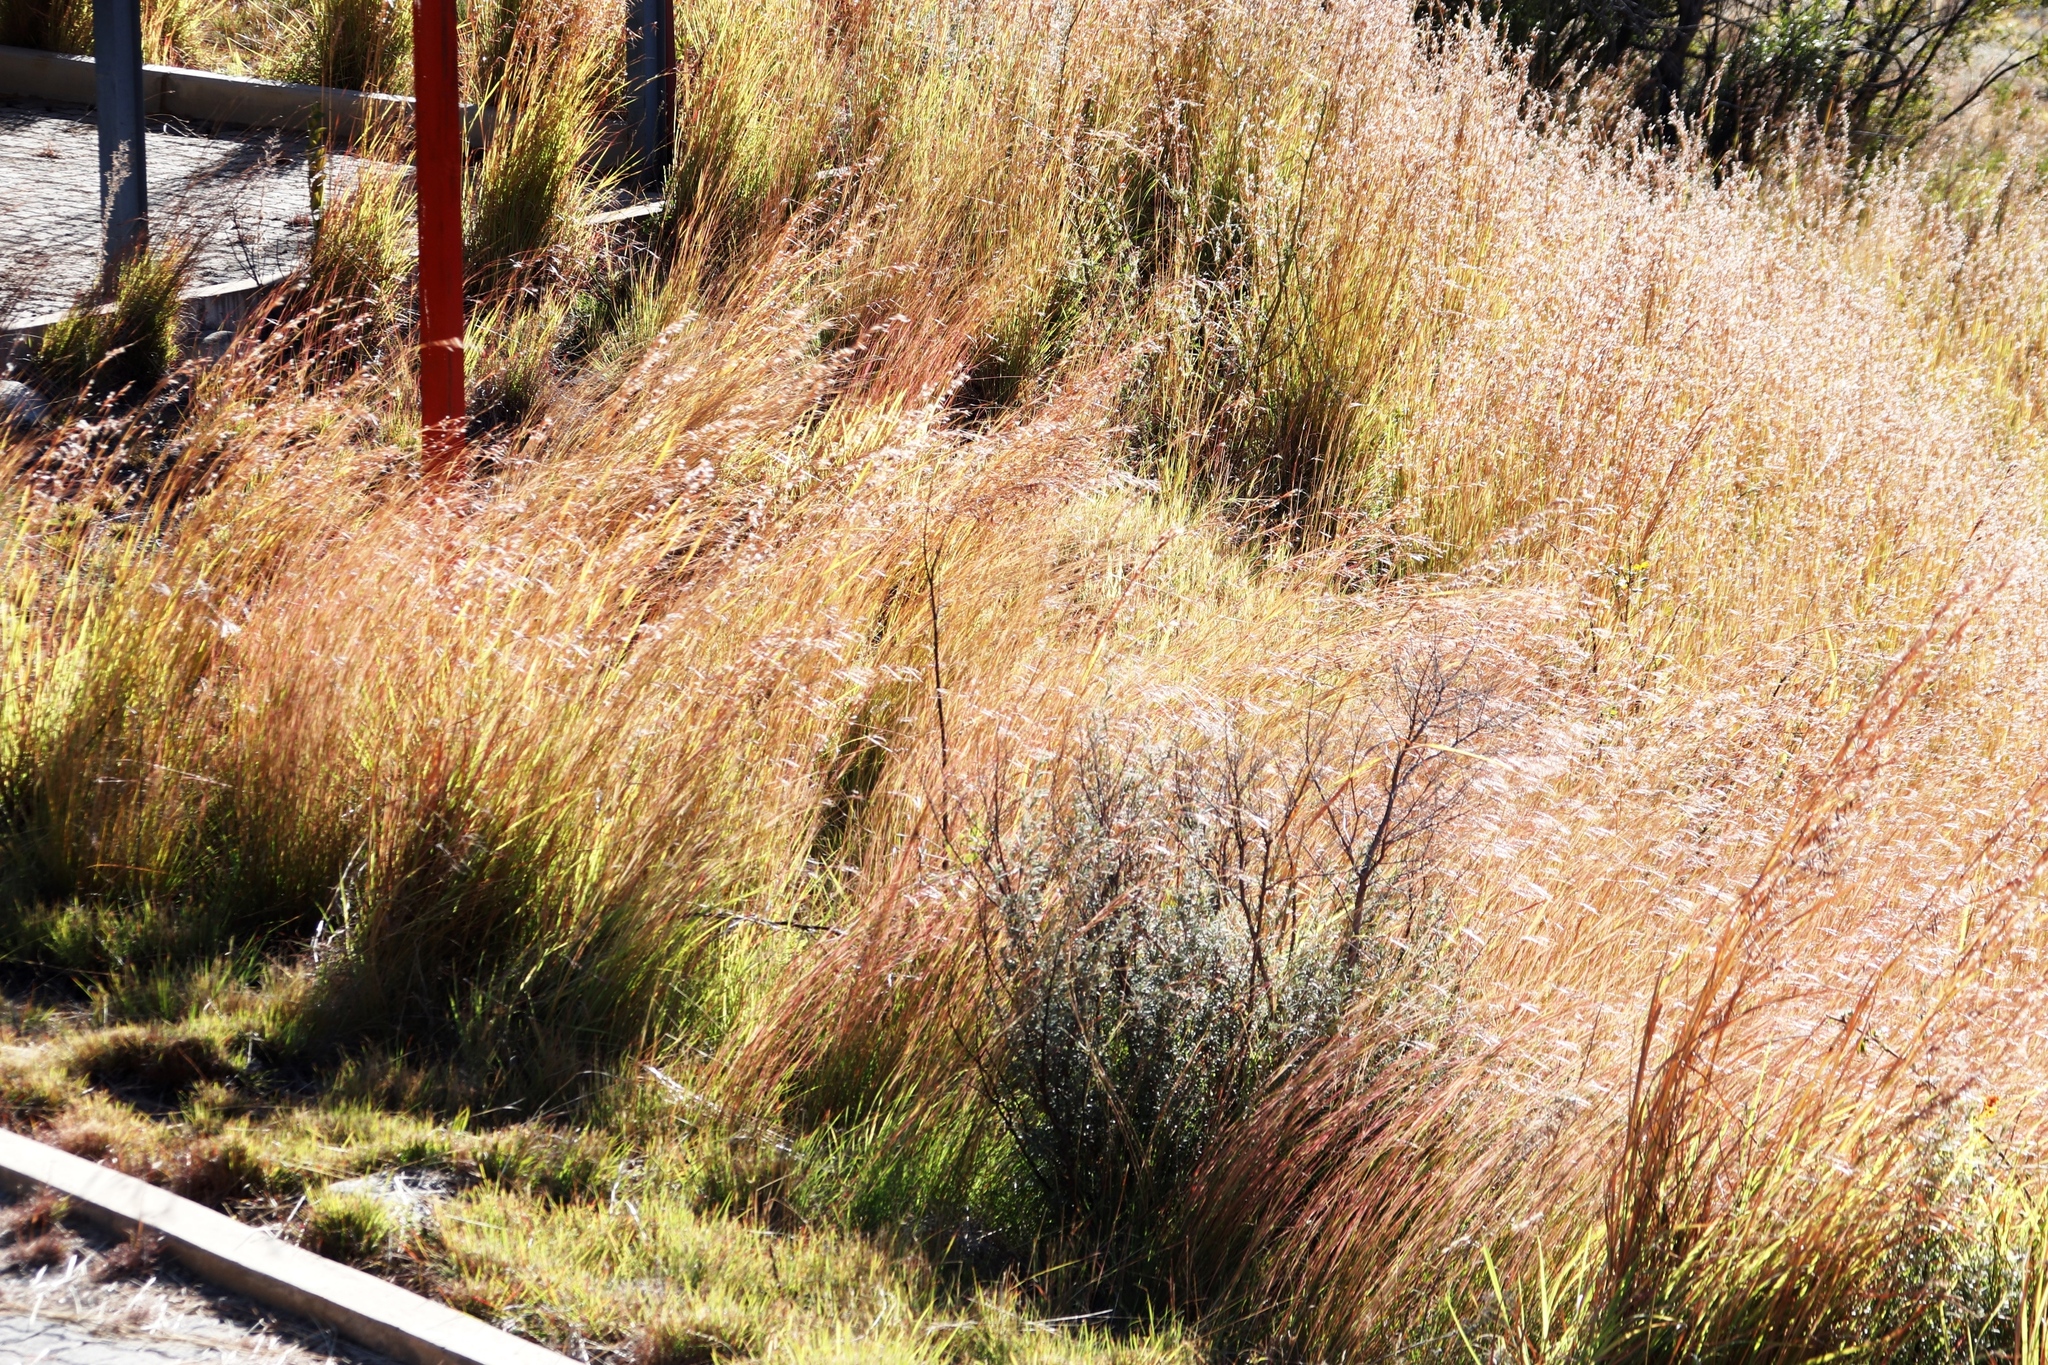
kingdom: Plantae
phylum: Tracheophyta
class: Liliopsida
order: Poales
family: Poaceae
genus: Hyparrhenia
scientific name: Hyparrhenia hirta
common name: Thatching grass
